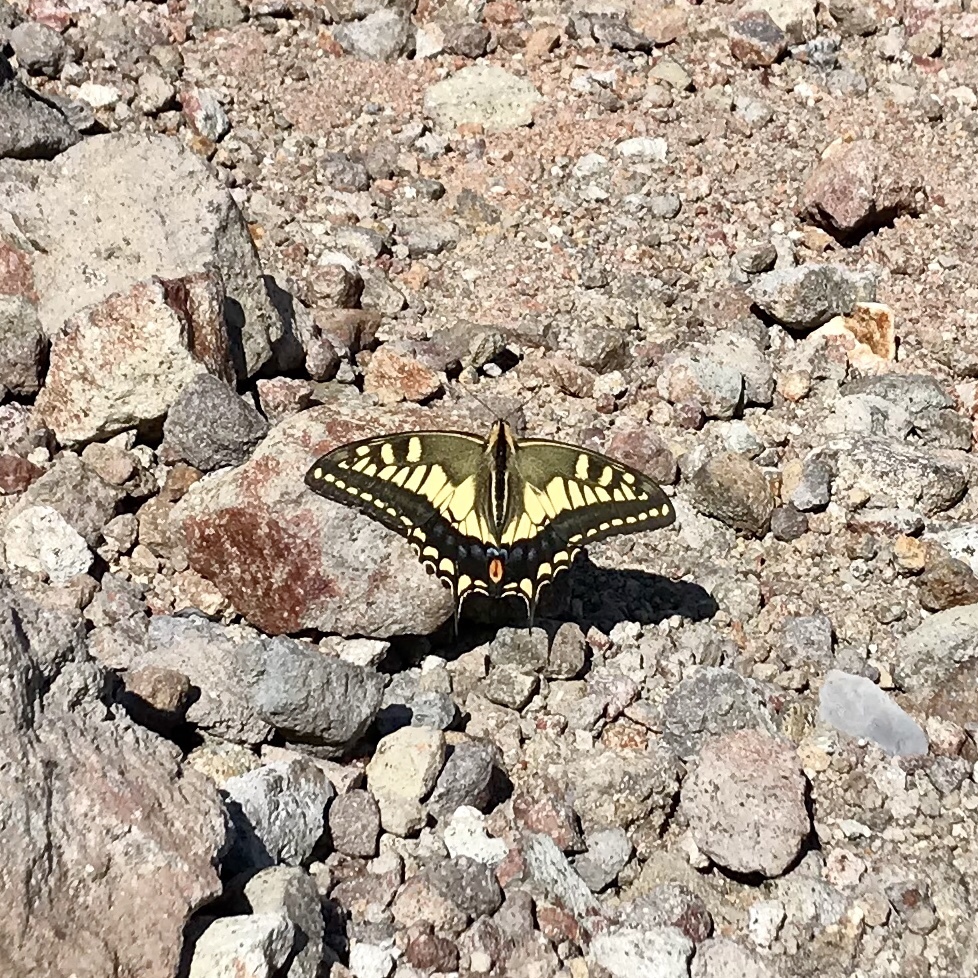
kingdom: Animalia
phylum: Arthropoda
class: Insecta
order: Lepidoptera
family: Papilionidae
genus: Papilio
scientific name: Papilio machaon
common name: Swallowtail
